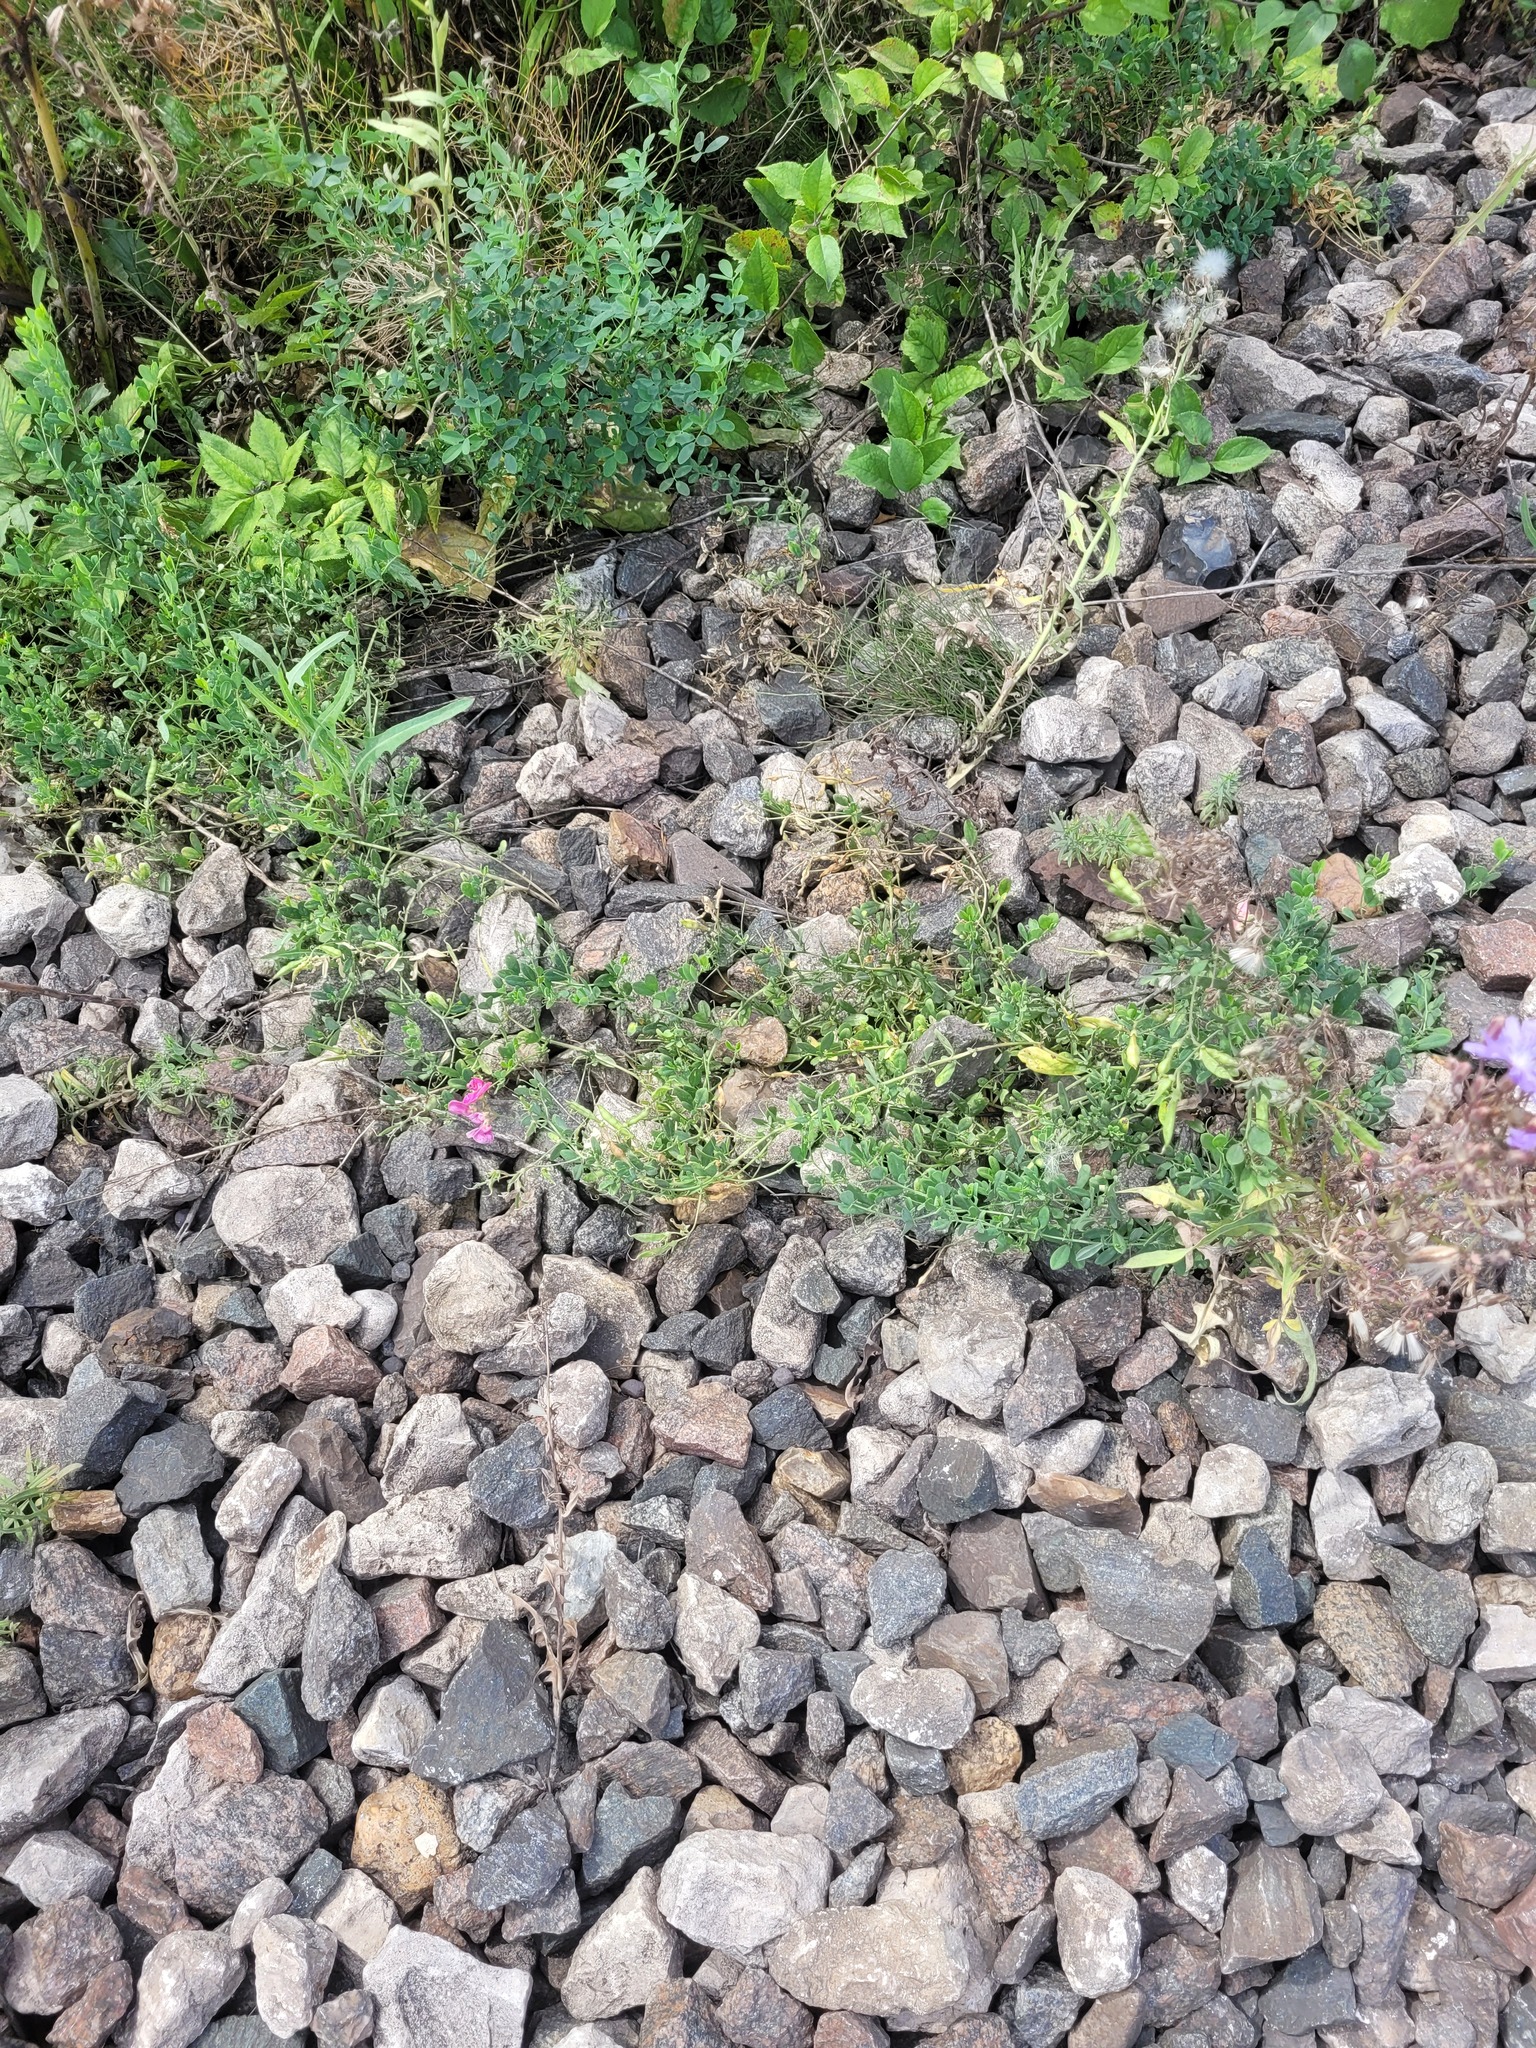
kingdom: Plantae
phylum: Tracheophyta
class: Magnoliopsida
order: Fabales
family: Fabaceae
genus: Lathyrus
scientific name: Lathyrus tuberosus
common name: Tuberous pea
